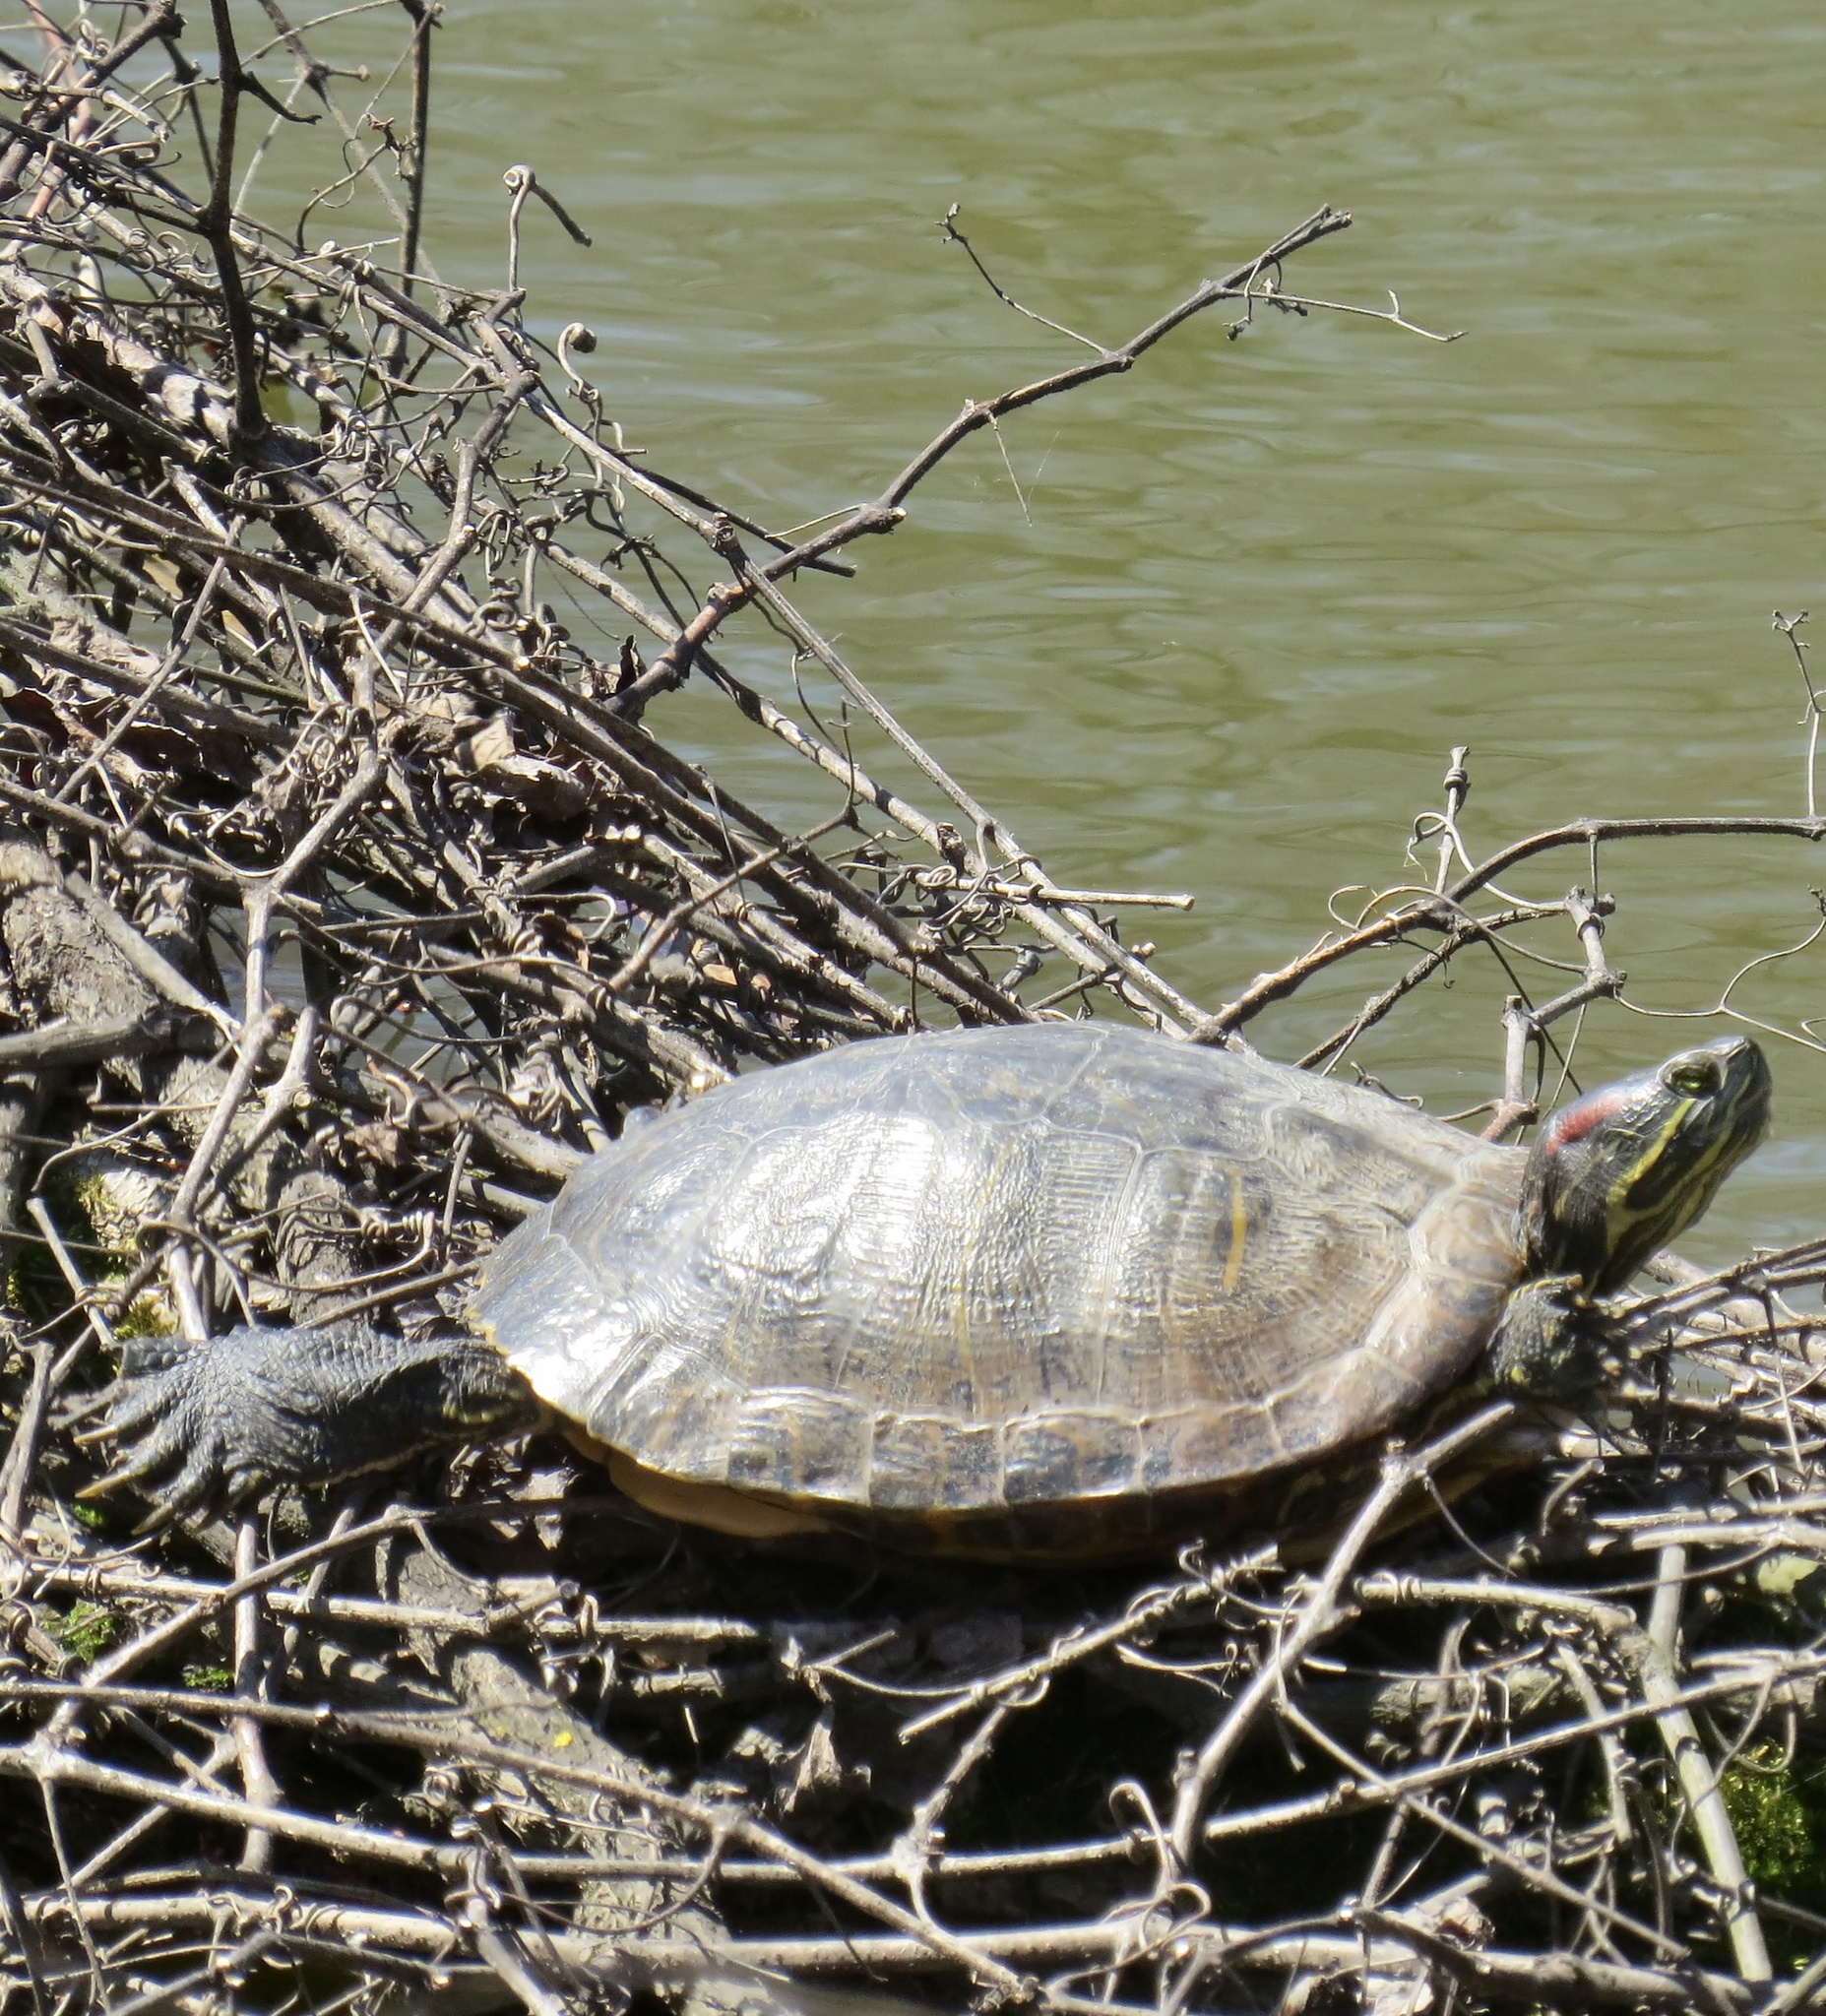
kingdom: Animalia
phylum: Chordata
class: Testudines
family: Emydidae
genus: Trachemys
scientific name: Trachemys scripta
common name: Slider
